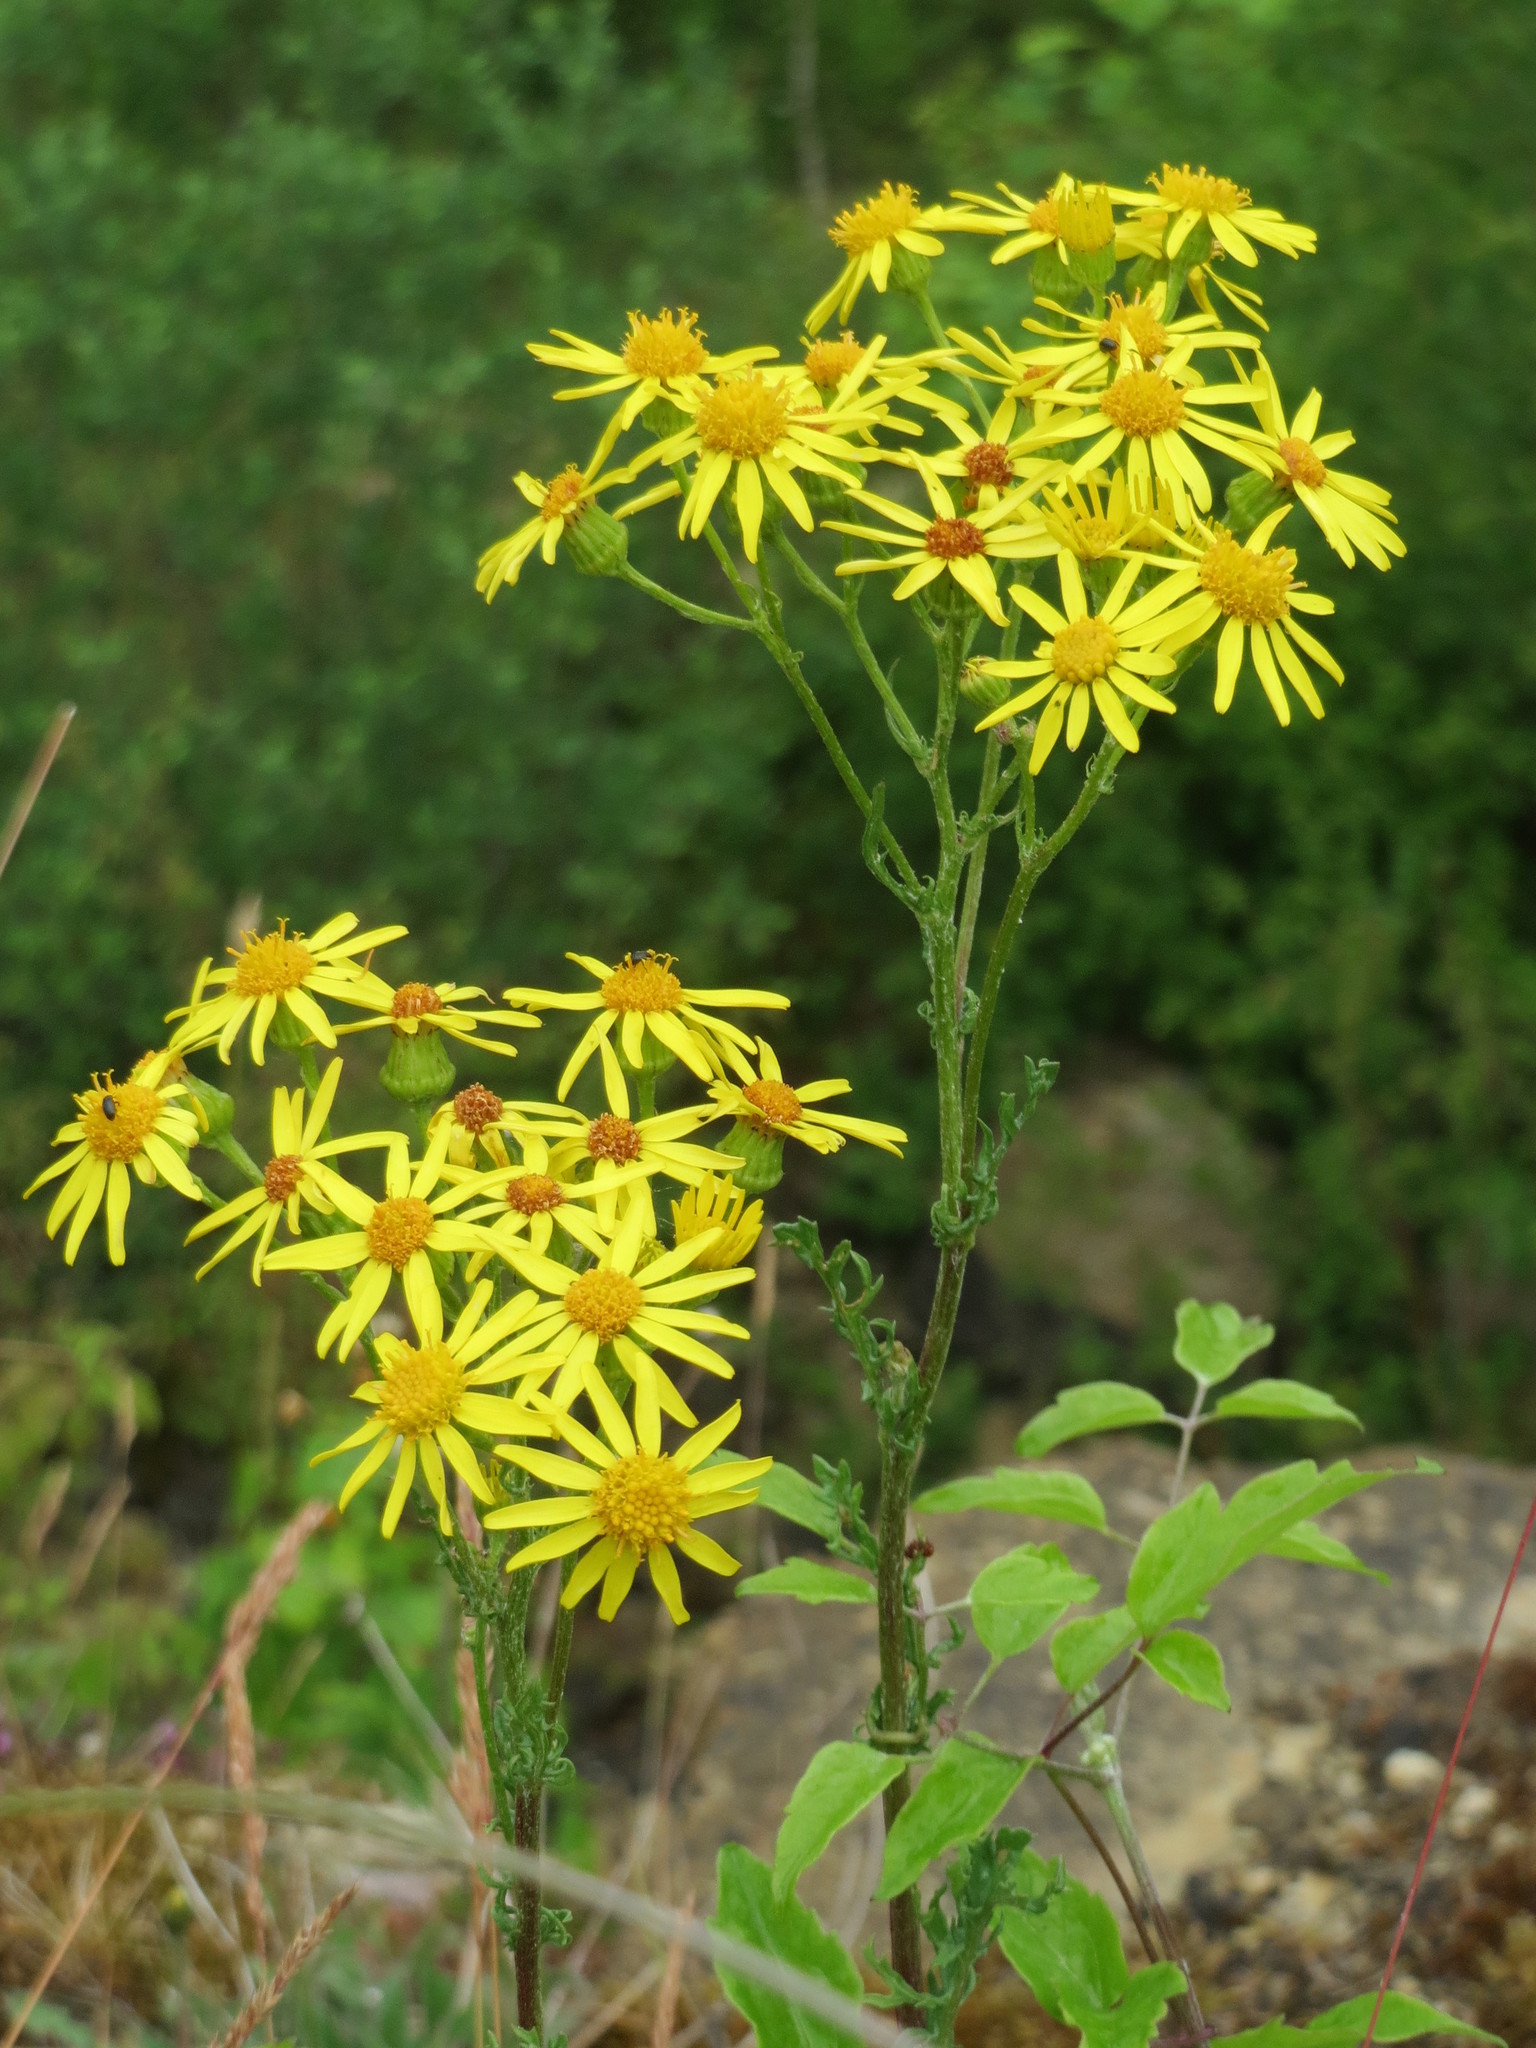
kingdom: Plantae
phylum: Tracheophyta
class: Magnoliopsida
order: Asterales
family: Asteraceae
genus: Jacobaea
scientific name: Jacobaea vulgaris
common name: Stinking willie
